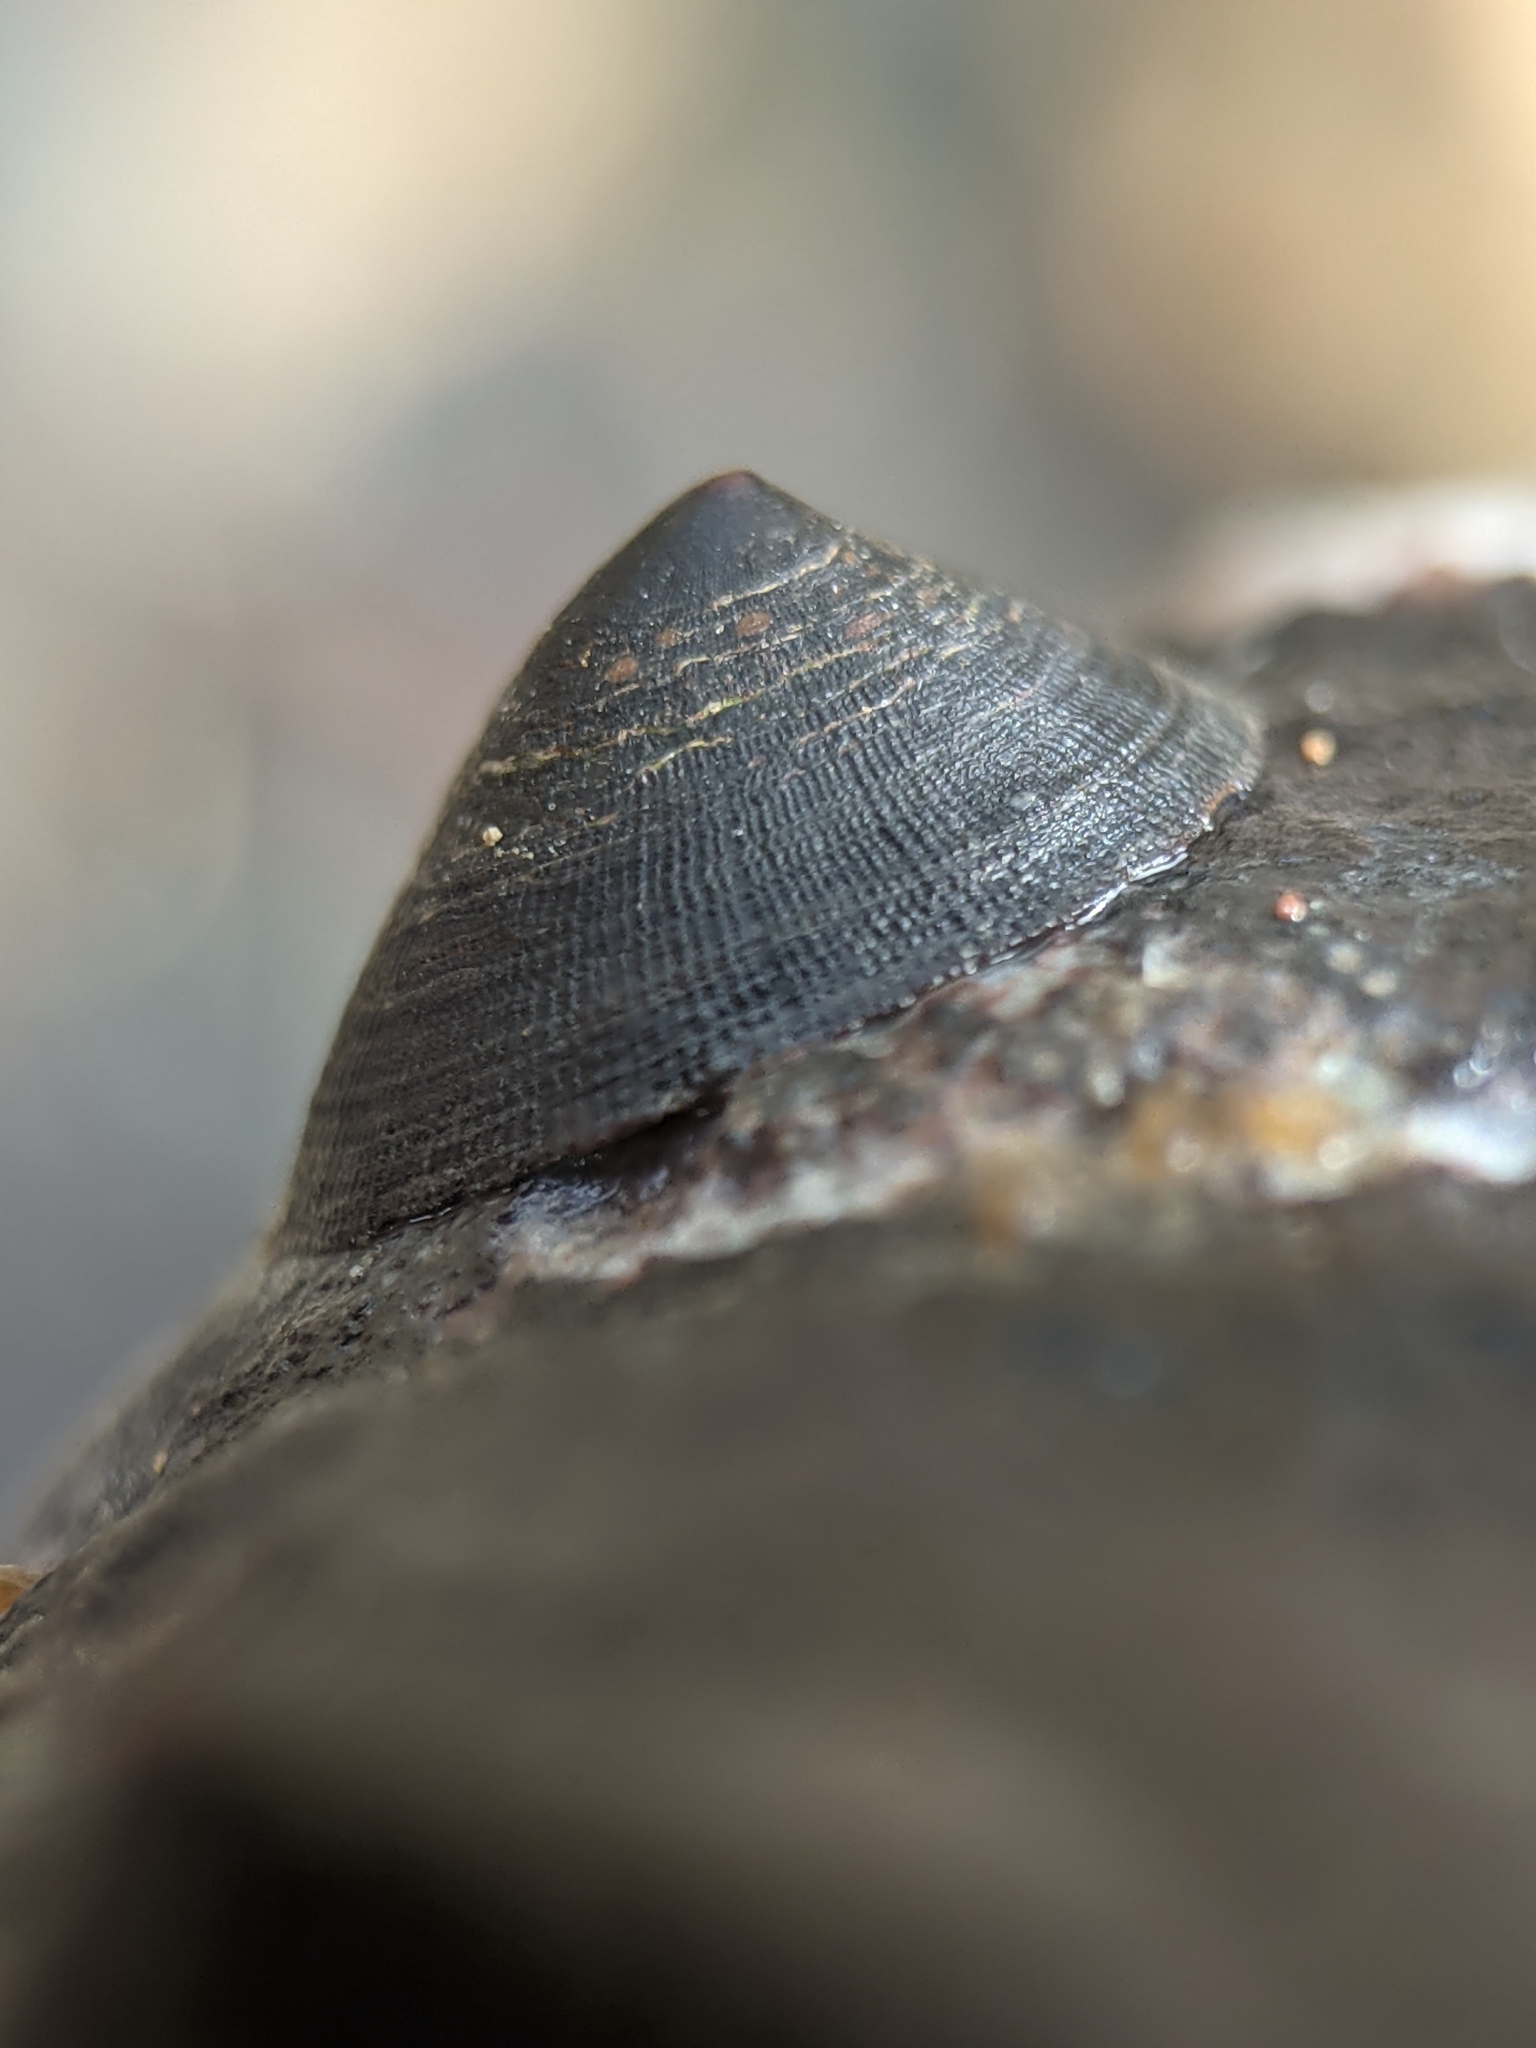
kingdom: Animalia
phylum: Mollusca
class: Gastropoda
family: Lottiidae
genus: Lottia
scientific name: Lottia asmi
